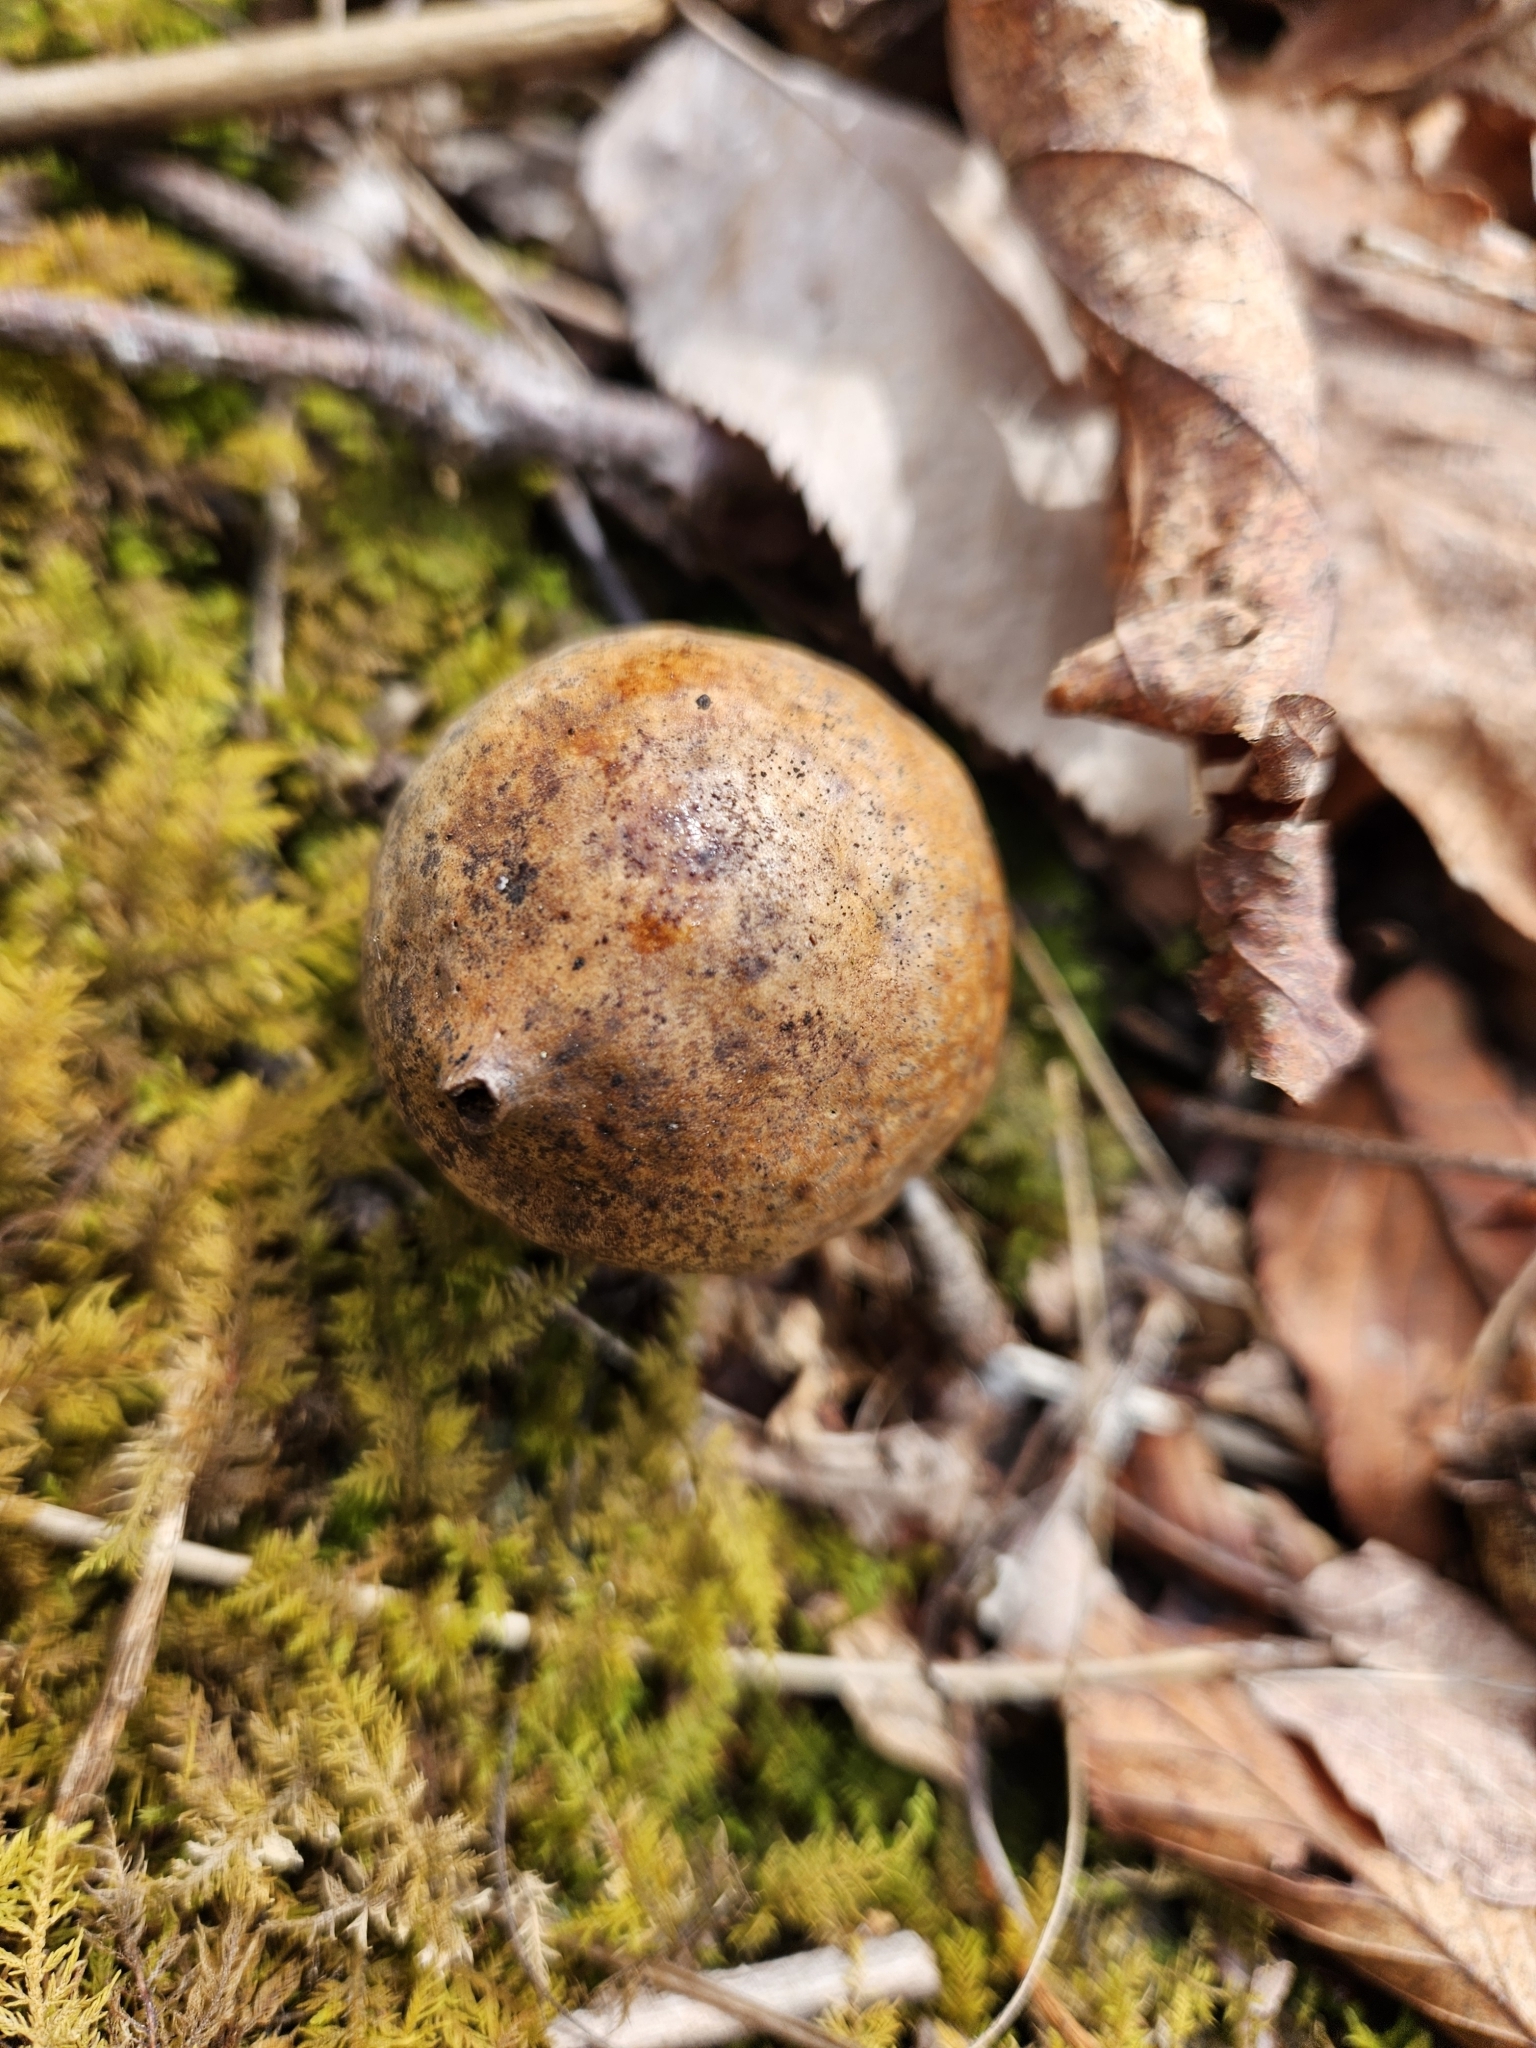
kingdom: Animalia
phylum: Arthropoda
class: Insecta
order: Hymenoptera
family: Cynipidae
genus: Amphibolips
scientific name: Amphibolips
